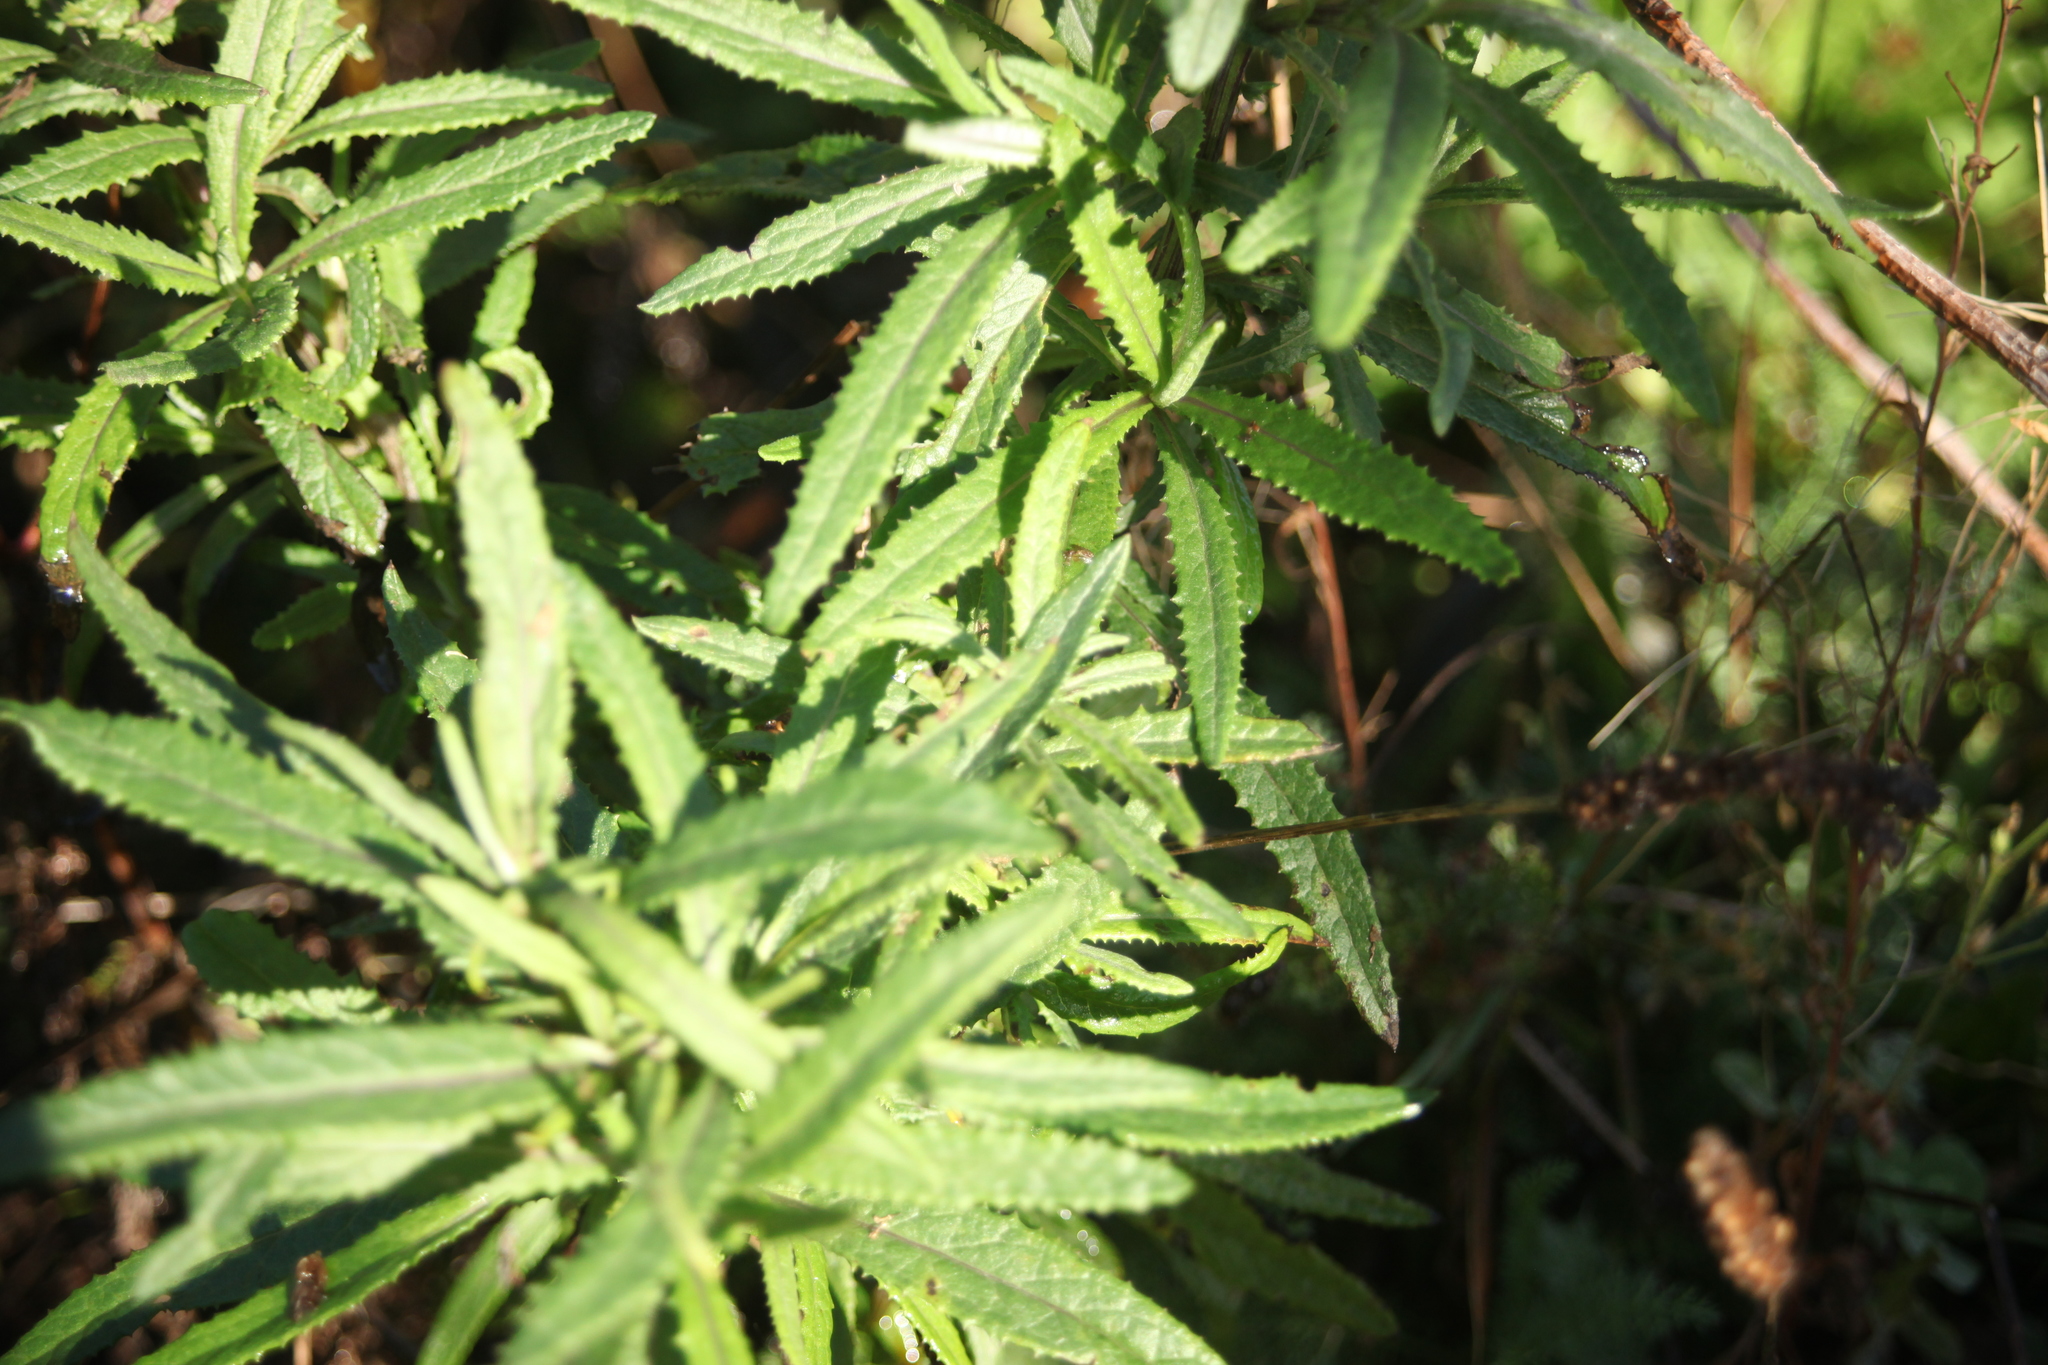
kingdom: Plantae
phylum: Tracheophyta
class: Magnoliopsida
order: Asterales
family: Asteraceae
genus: Senecio
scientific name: Senecio minimus
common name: Toothed fireweed
